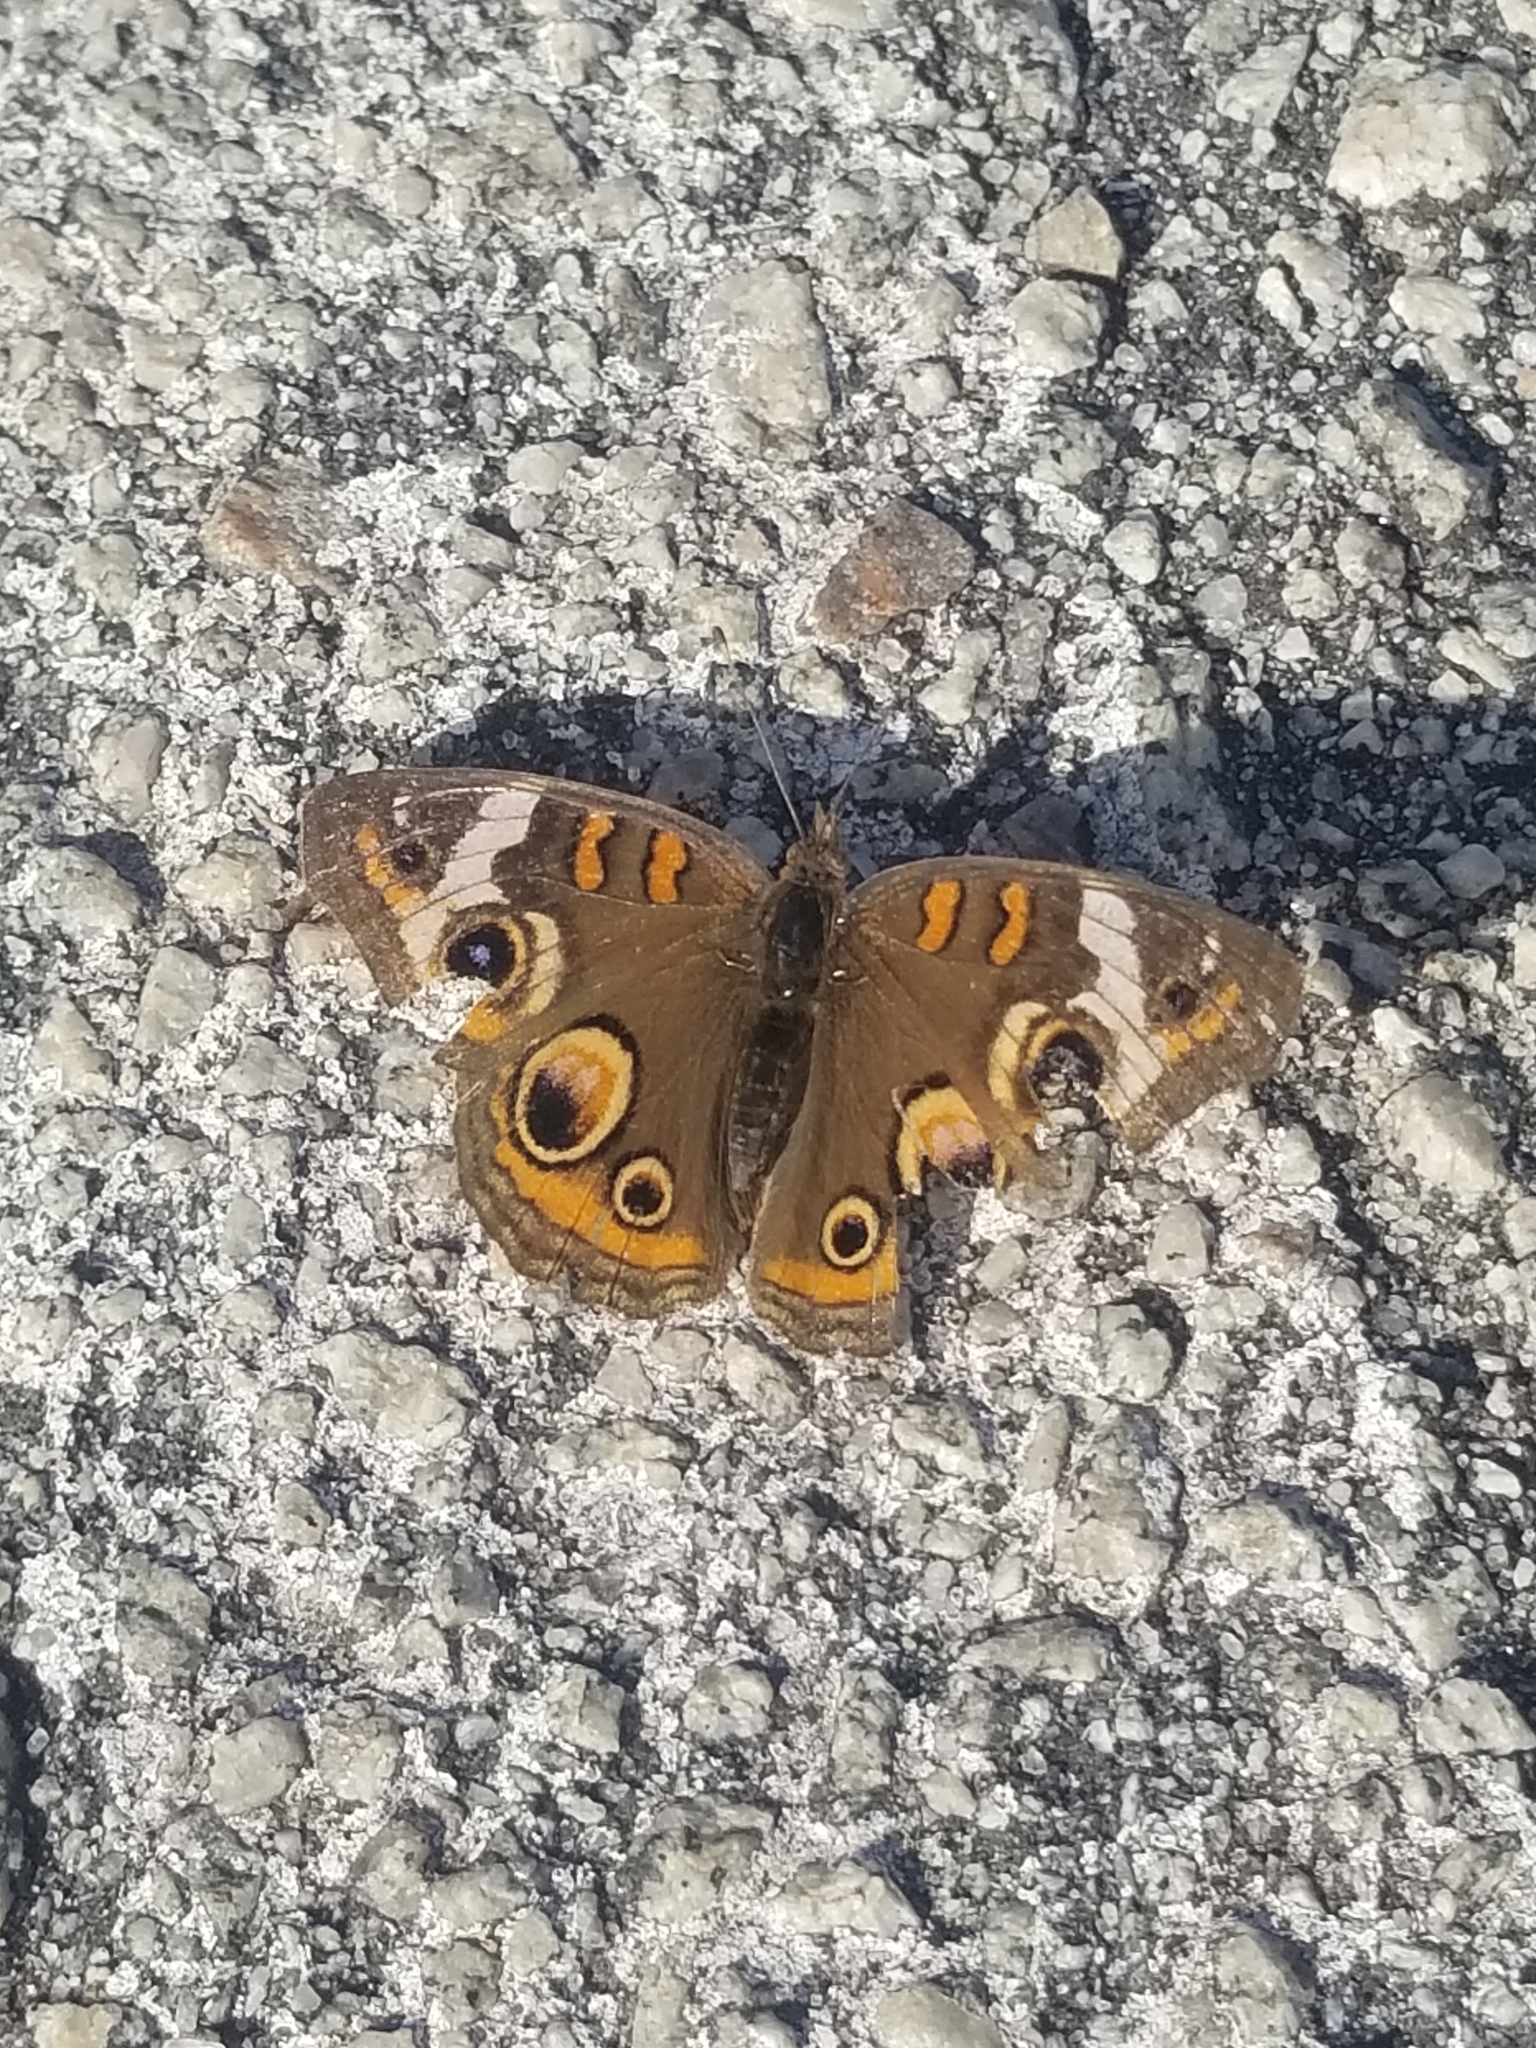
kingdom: Animalia
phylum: Arthropoda
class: Insecta
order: Lepidoptera
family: Nymphalidae
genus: Junonia
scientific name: Junonia coenia
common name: Common buckeye
